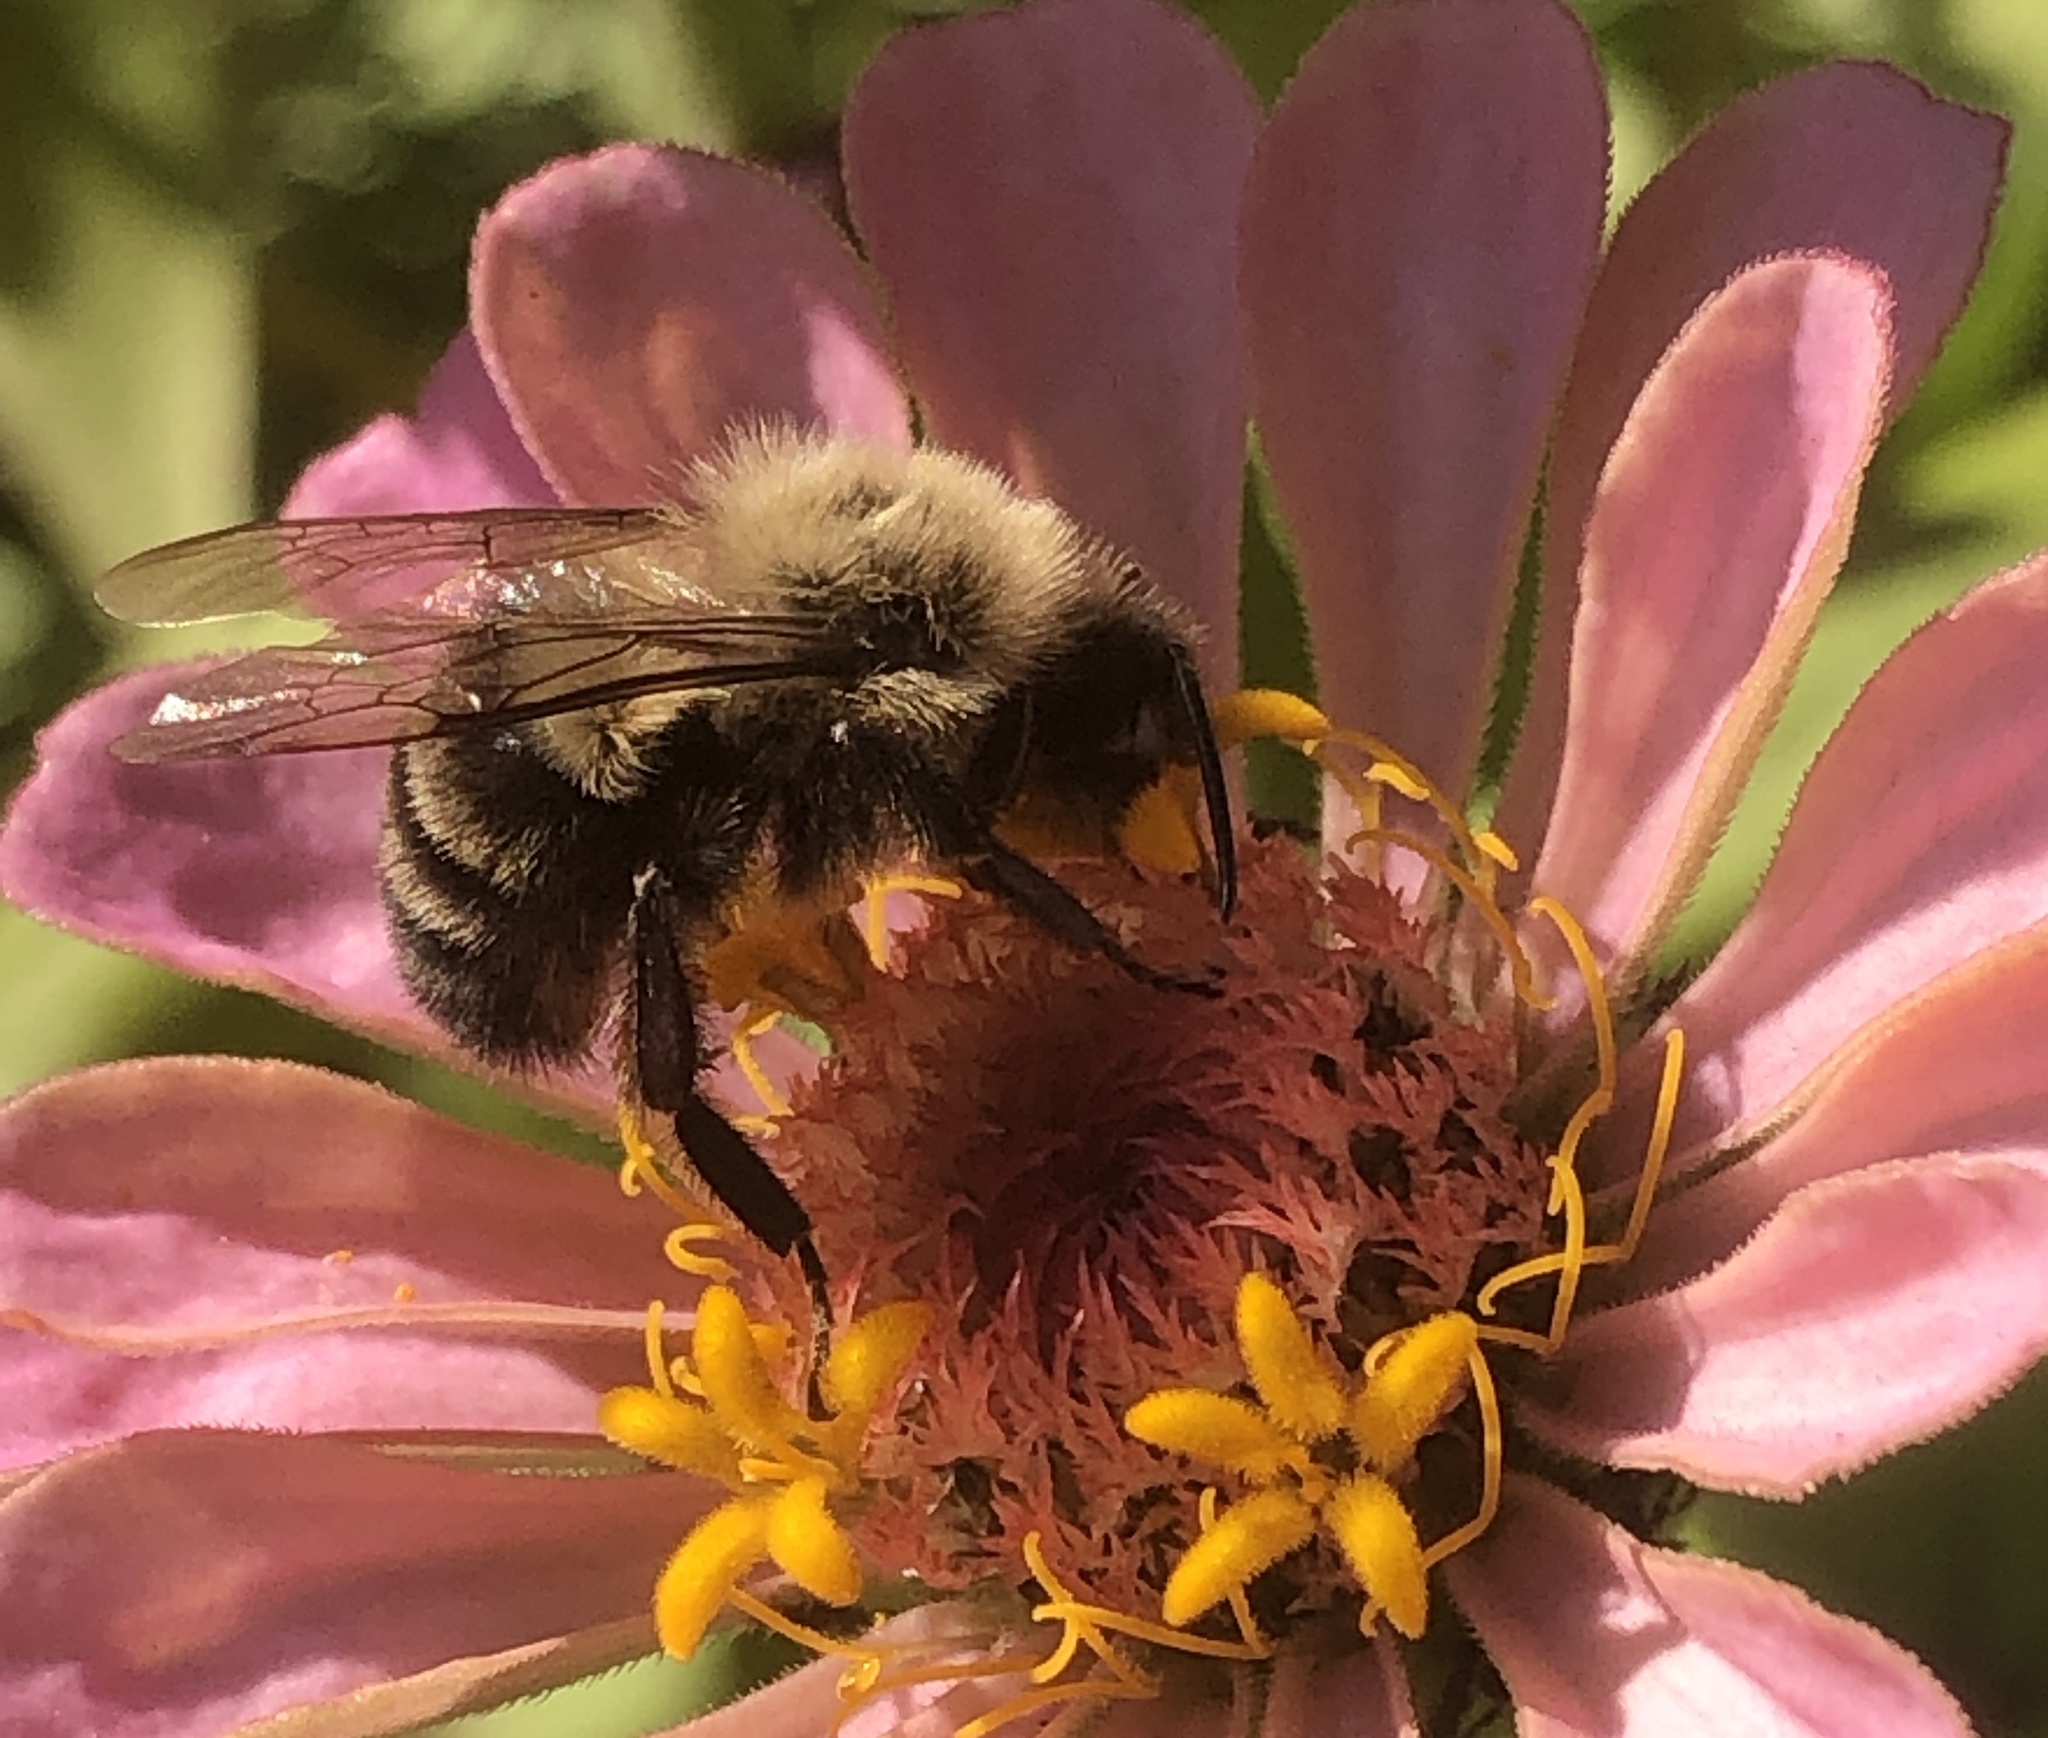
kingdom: Animalia
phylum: Arthropoda
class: Insecta
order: Hymenoptera
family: Apidae
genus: Bombus
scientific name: Bombus impatiens
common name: Common eastern bumble bee
